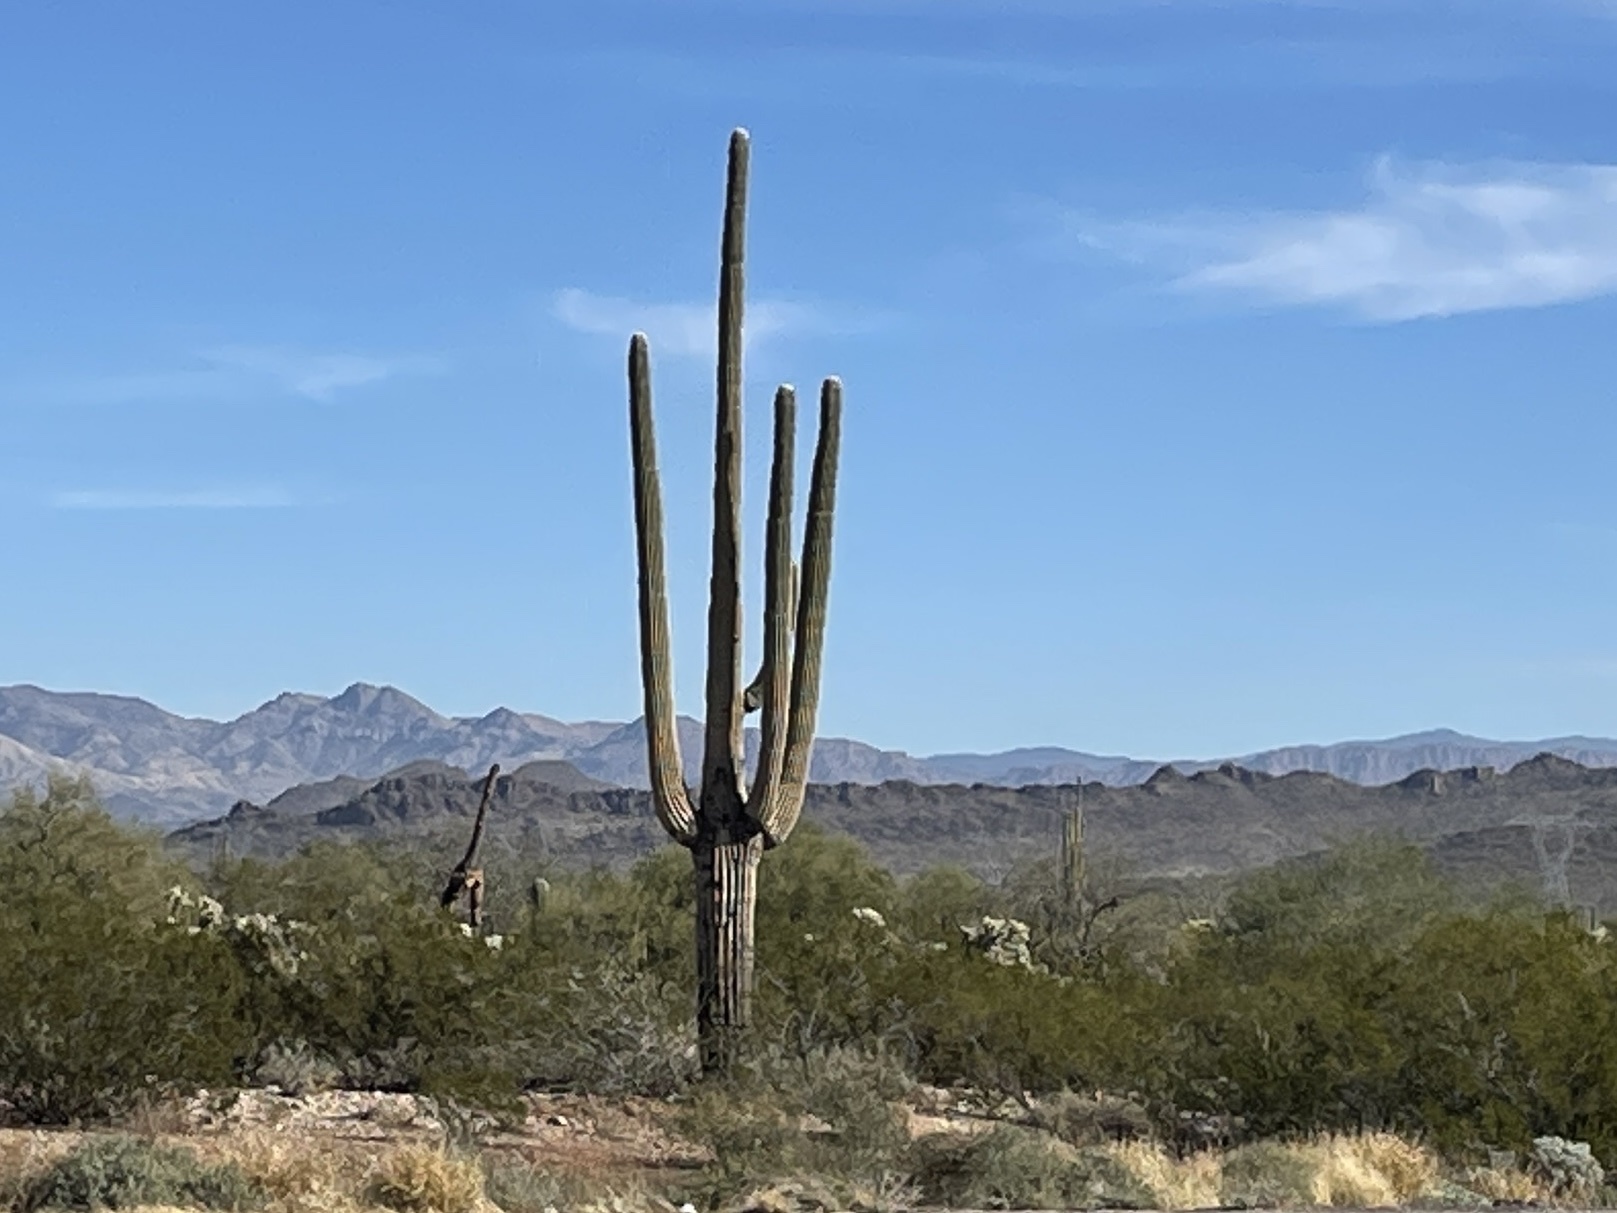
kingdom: Plantae
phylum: Tracheophyta
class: Magnoliopsida
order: Caryophyllales
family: Cactaceae
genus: Carnegiea
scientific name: Carnegiea gigantea
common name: Saguaro
